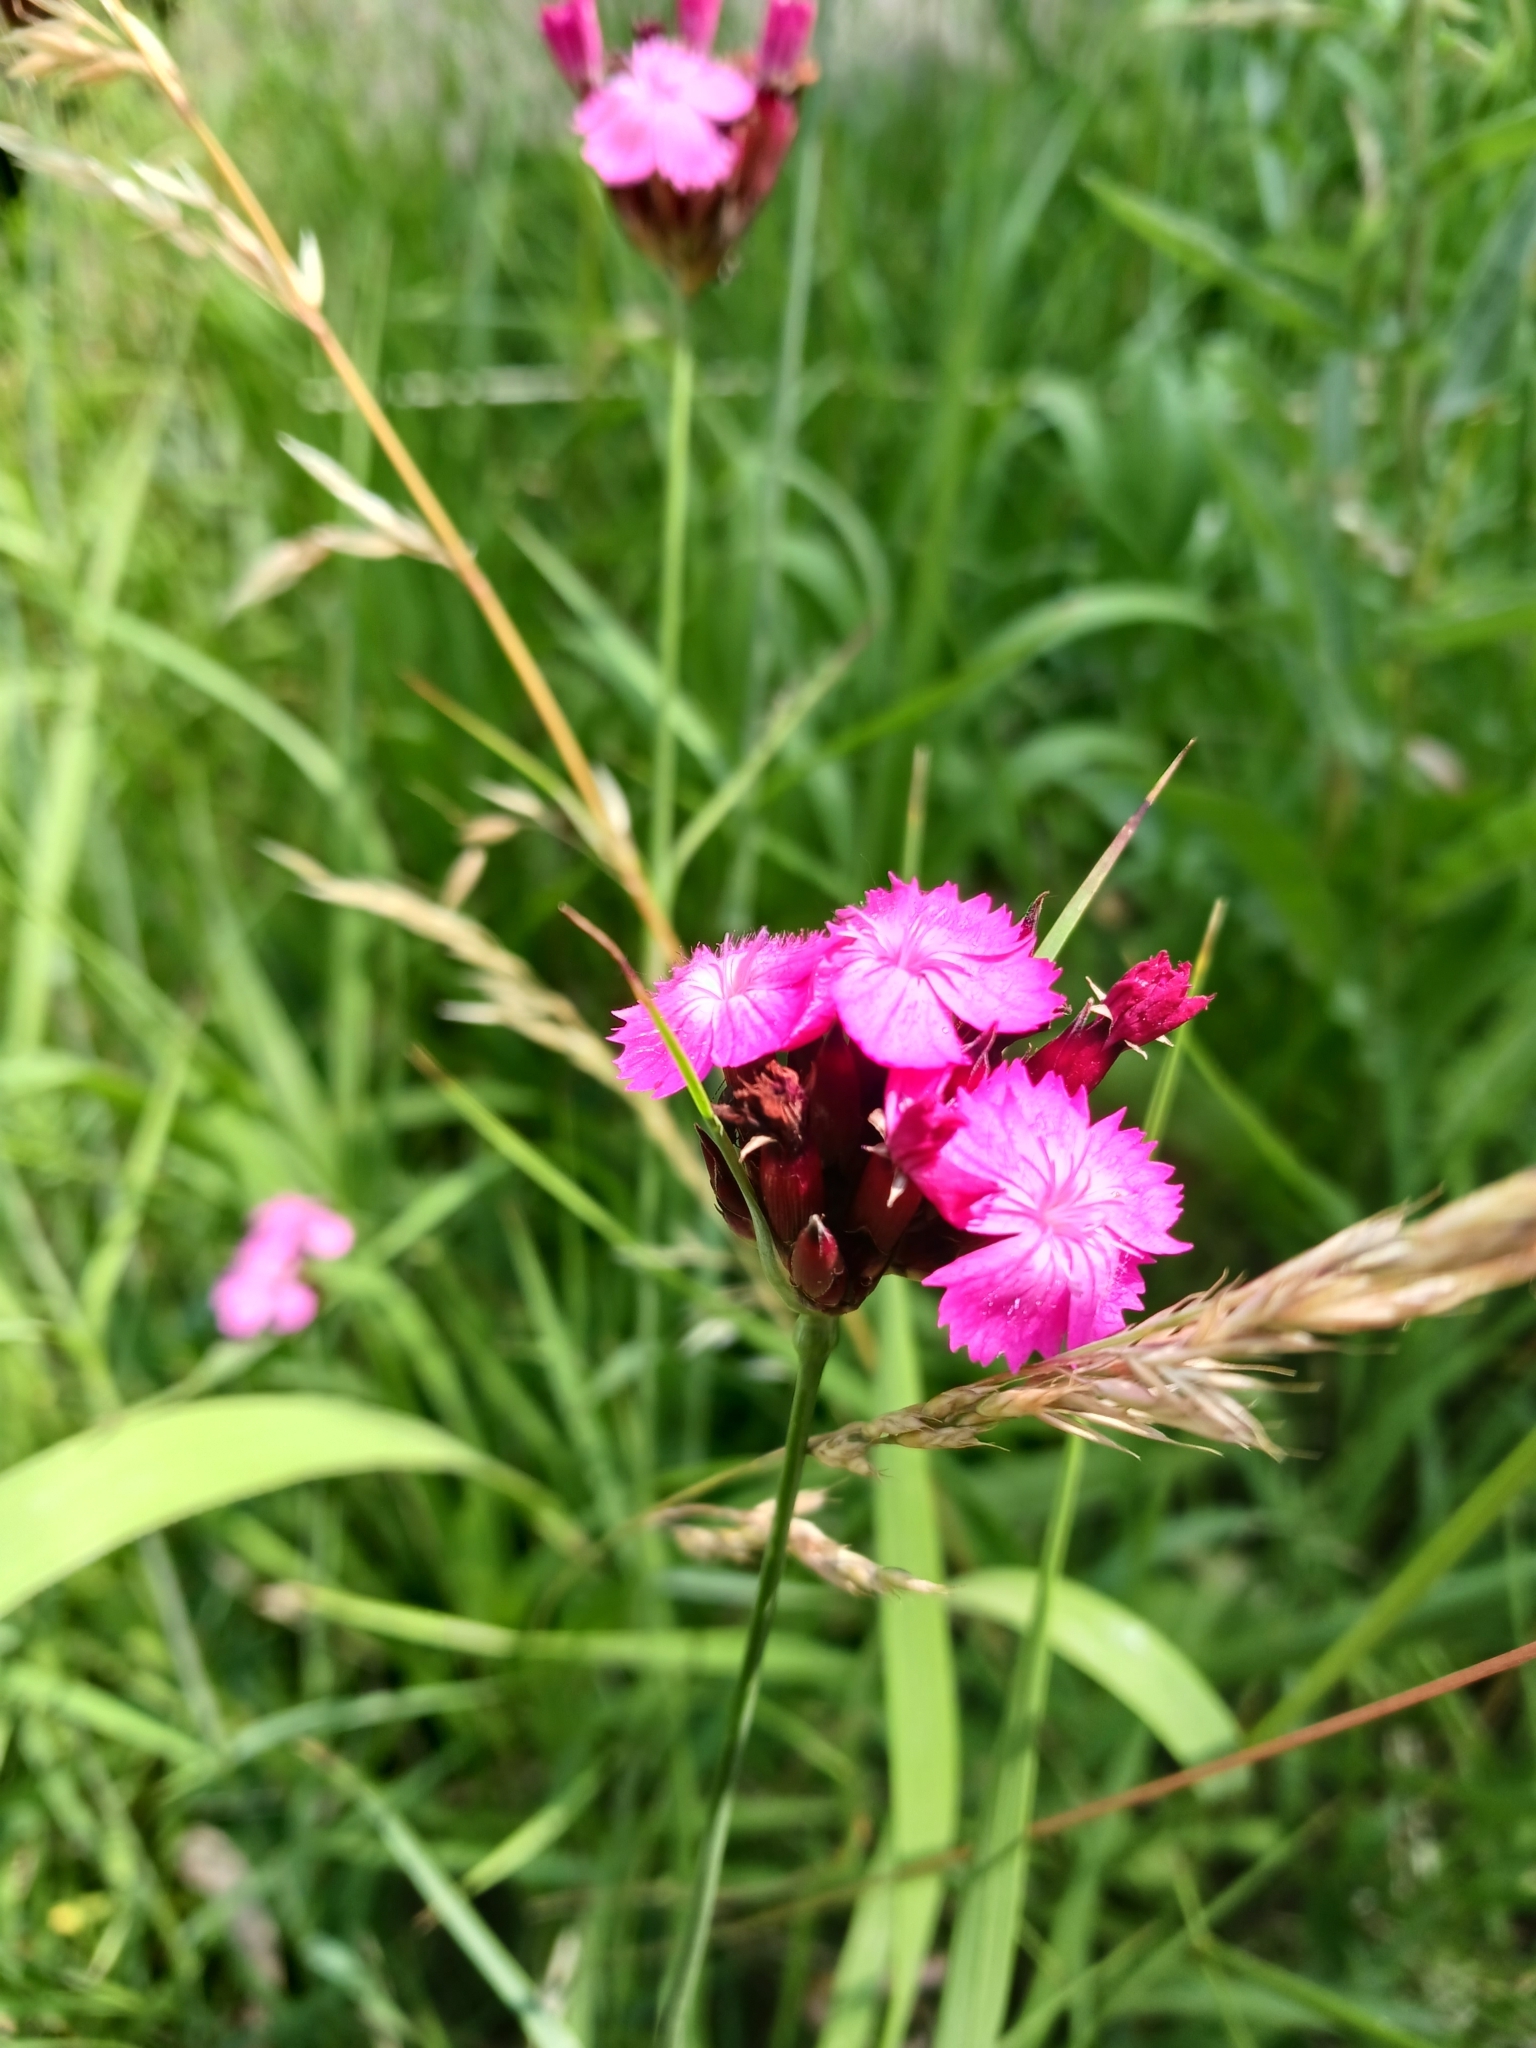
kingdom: Plantae
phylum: Tracheophyta
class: Magnoliopsida
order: Caryophyllales
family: Caryophyllaceae
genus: Dianthus
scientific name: Dianthus carthusianorum
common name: Carthusian pink
